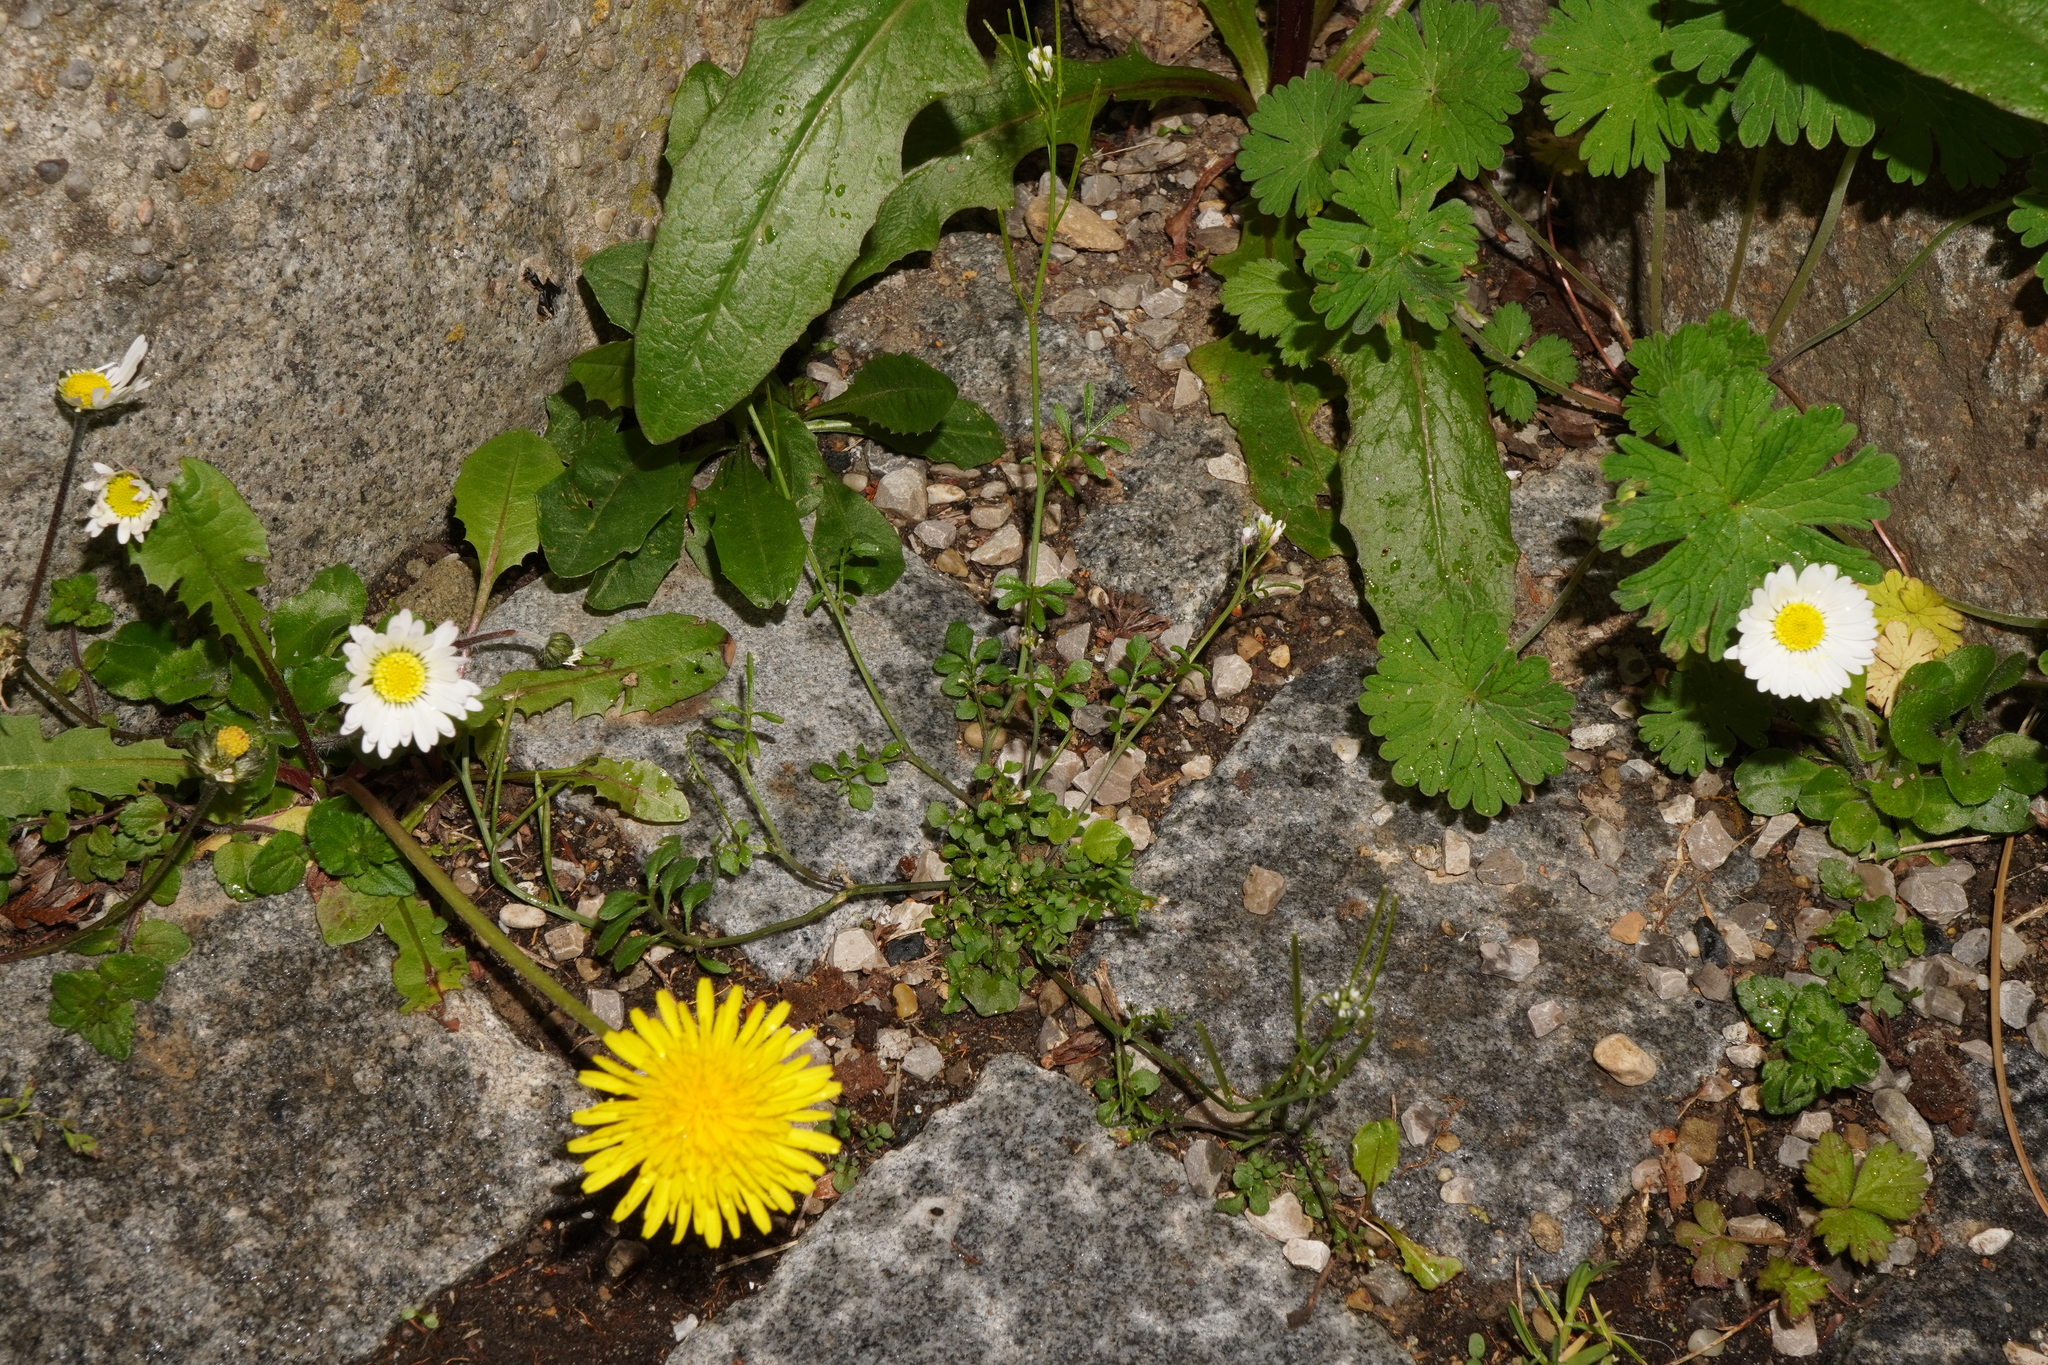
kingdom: Plantae
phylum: Tracheophyta
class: Magnoliopsida
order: Brassicales
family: Brassicaceae
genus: Cardamine
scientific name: Cardamine hirsuta
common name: Hairy bittercress
